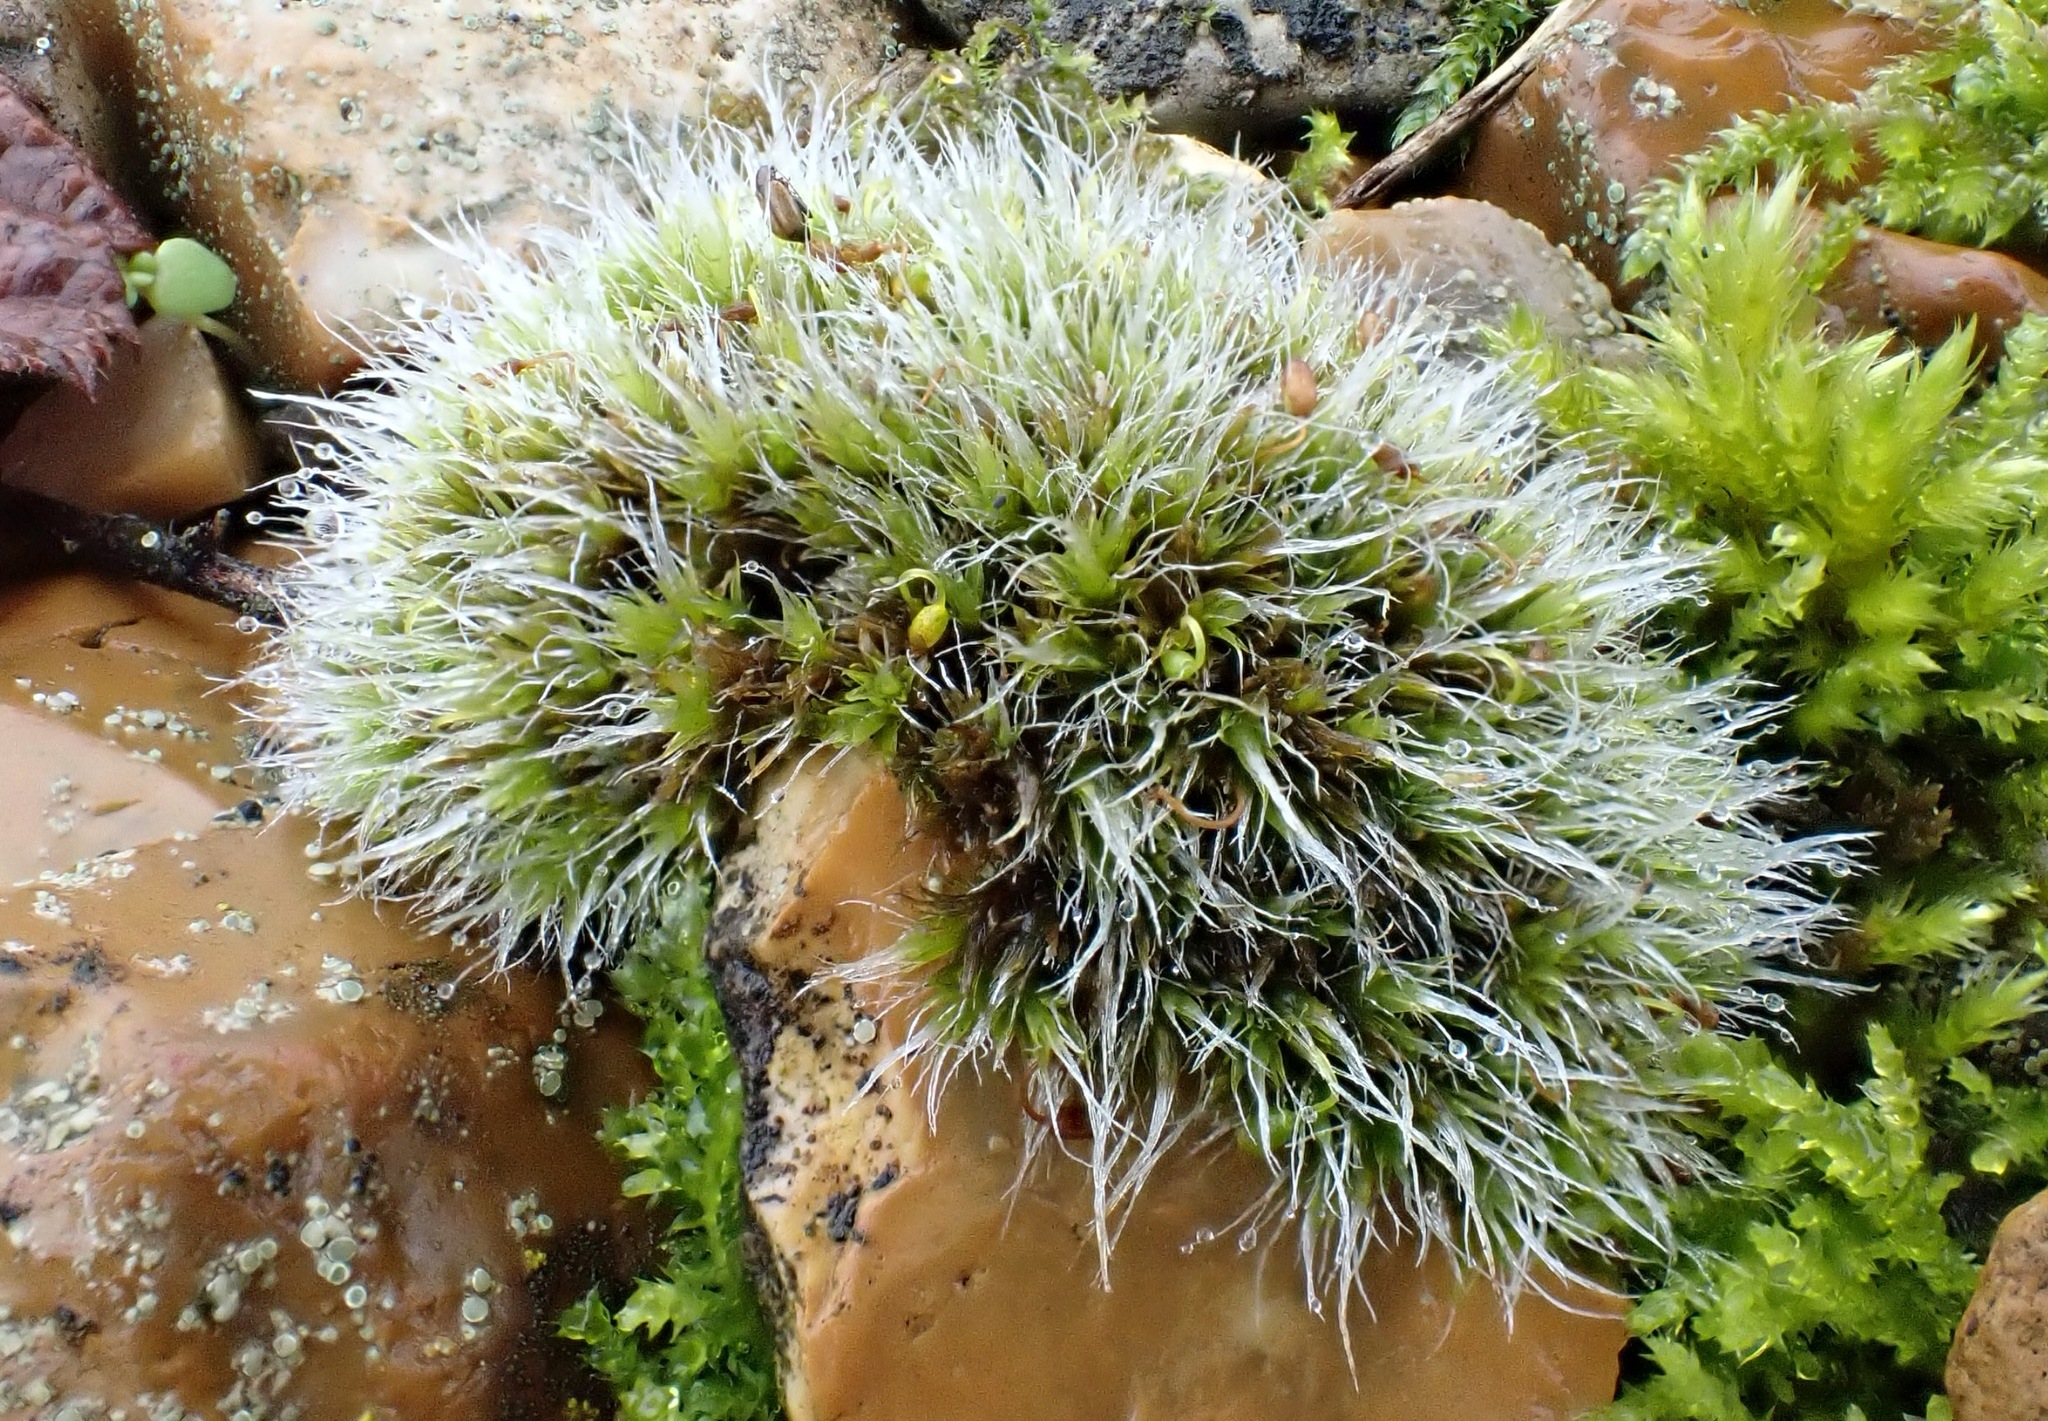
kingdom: Plantae
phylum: Bryophyta
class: Bryopsida
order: Grimmiales
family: Grimmiaceae
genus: Grimmia
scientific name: Grimmia pulvinata
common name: Grey-cushioned grimmia
